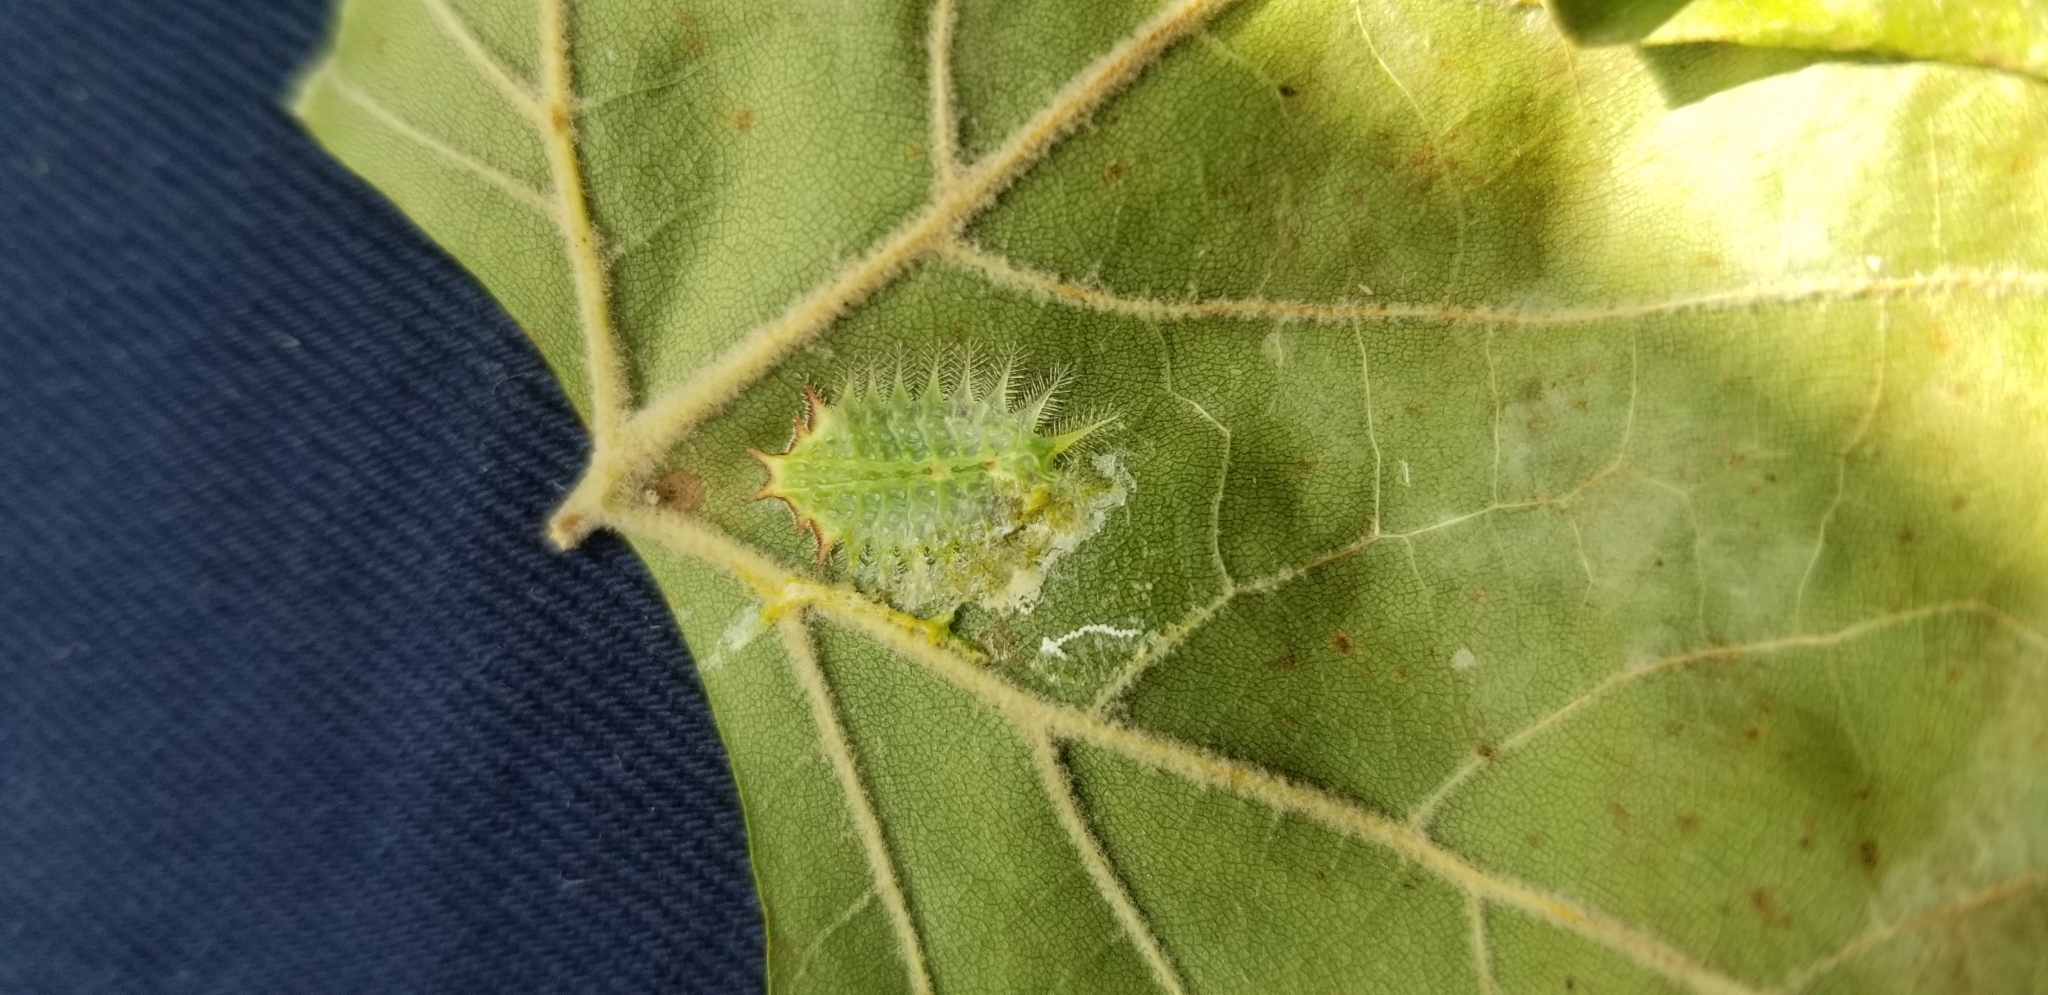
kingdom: Animalia
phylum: Arthropoda
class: Insecta
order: Lepidoptera
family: Limacodidae
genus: Isa
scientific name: Isa textula
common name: Crowned slug moth
